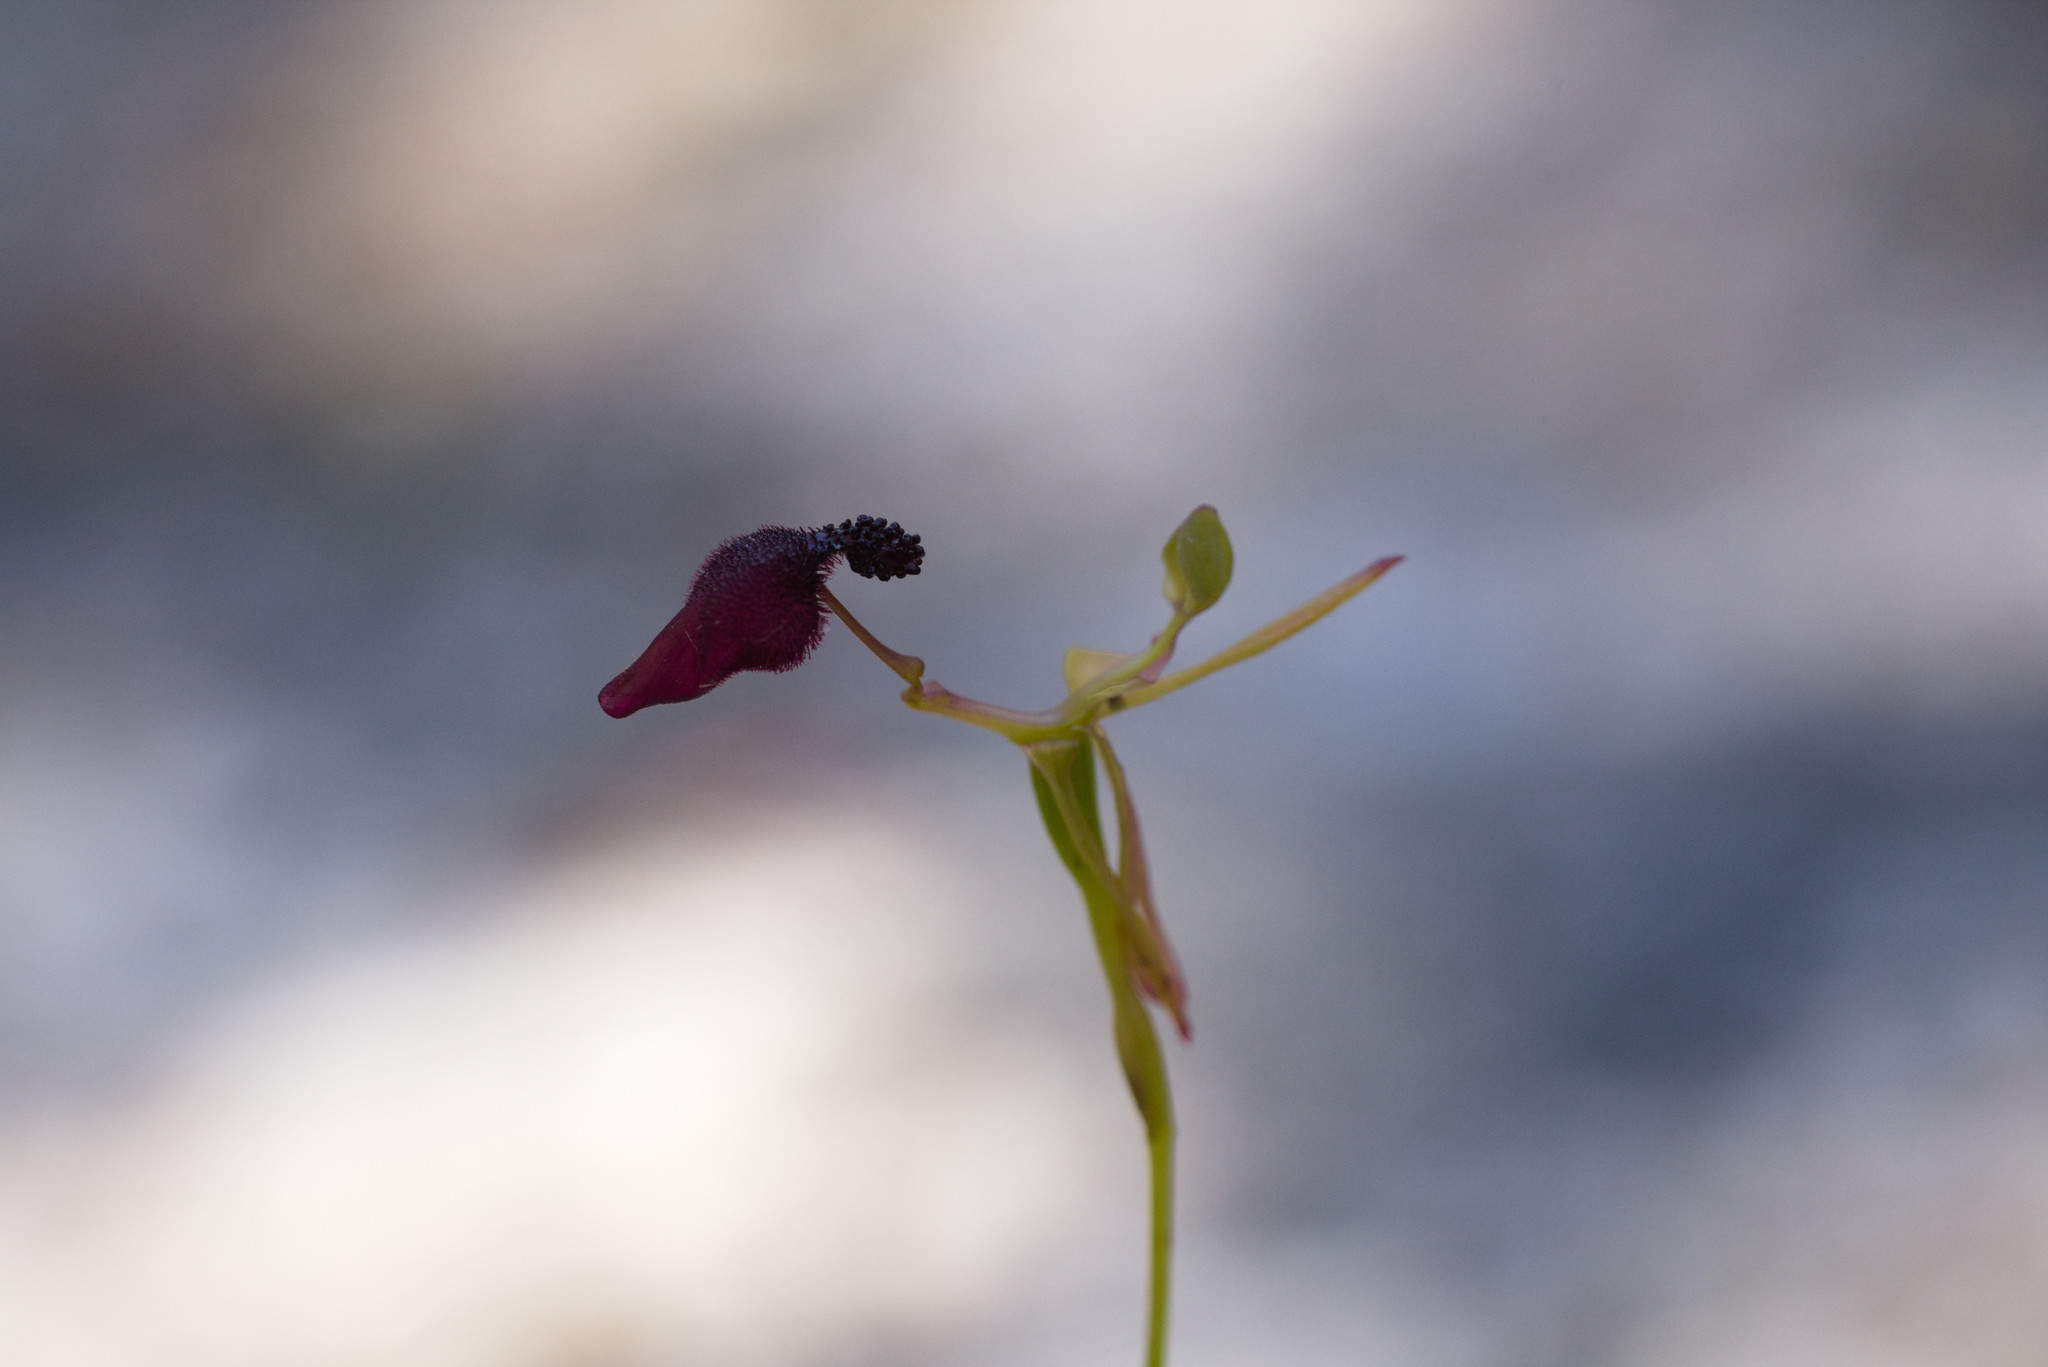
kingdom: Plantae
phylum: Tracheophyta
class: Liliopsida
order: Asparagales
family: Orchidaceae
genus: Drakaea
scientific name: Drakaea glyptodon
